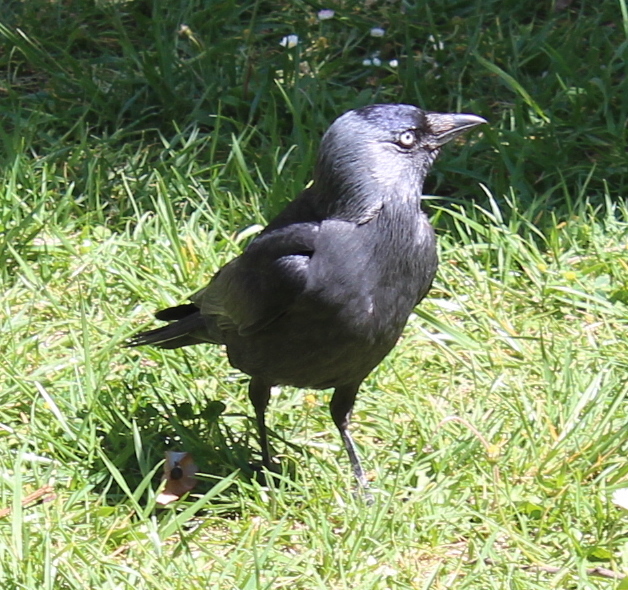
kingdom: Animalia
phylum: Chordata
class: Aves
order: Passeriformes
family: Corvidae
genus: Coloeus
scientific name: Coloeus monedula
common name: Western jackdaw
